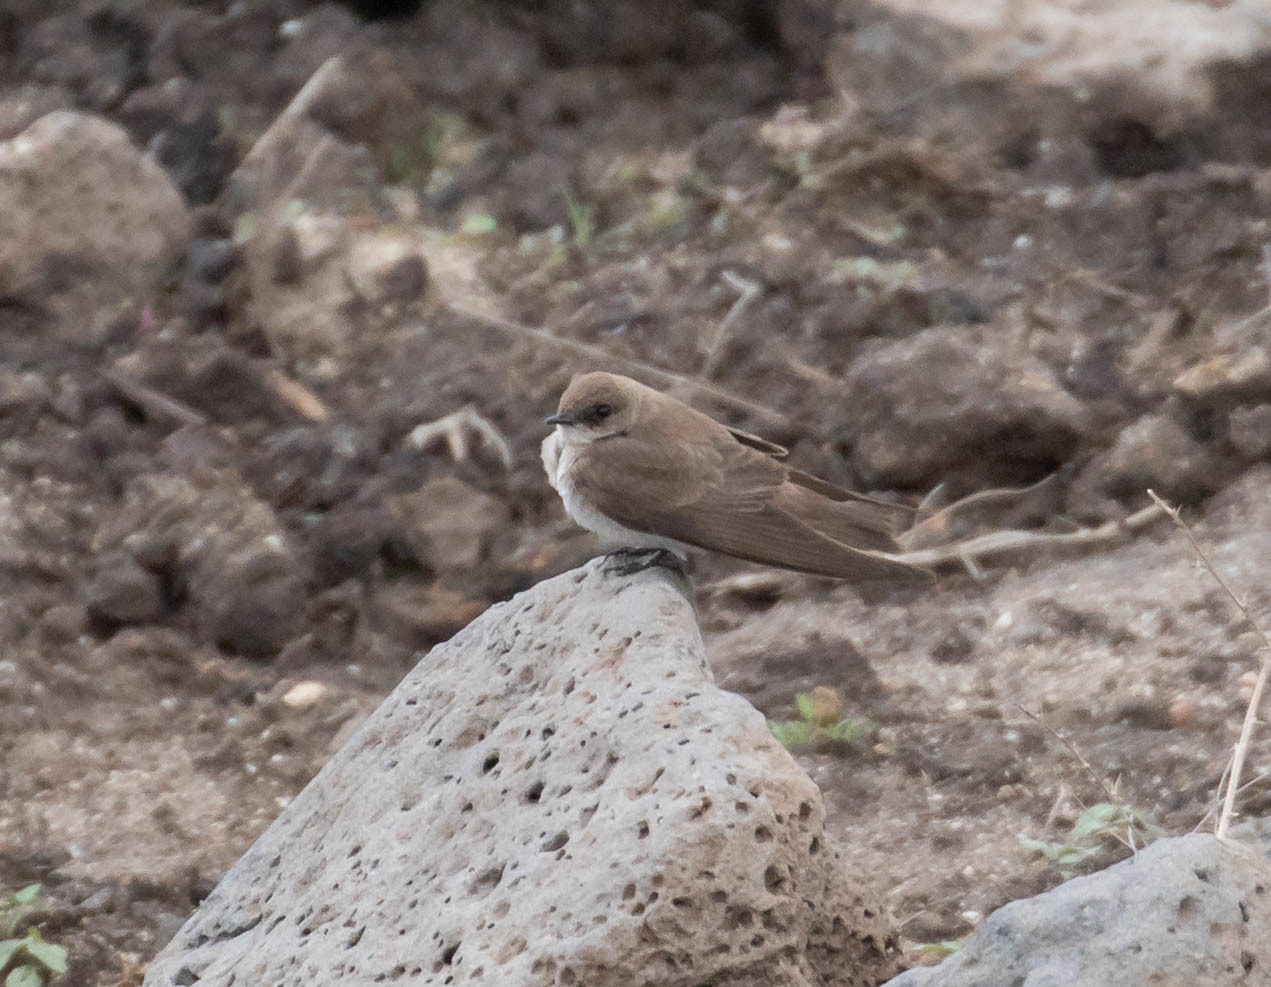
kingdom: Animalia
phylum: Chordata
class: Aves
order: Passeriformes
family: Hirundinidae
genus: Stelgidopteryx
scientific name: Stelgidopteryx serripennis
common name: Northern rough-winged swallow
